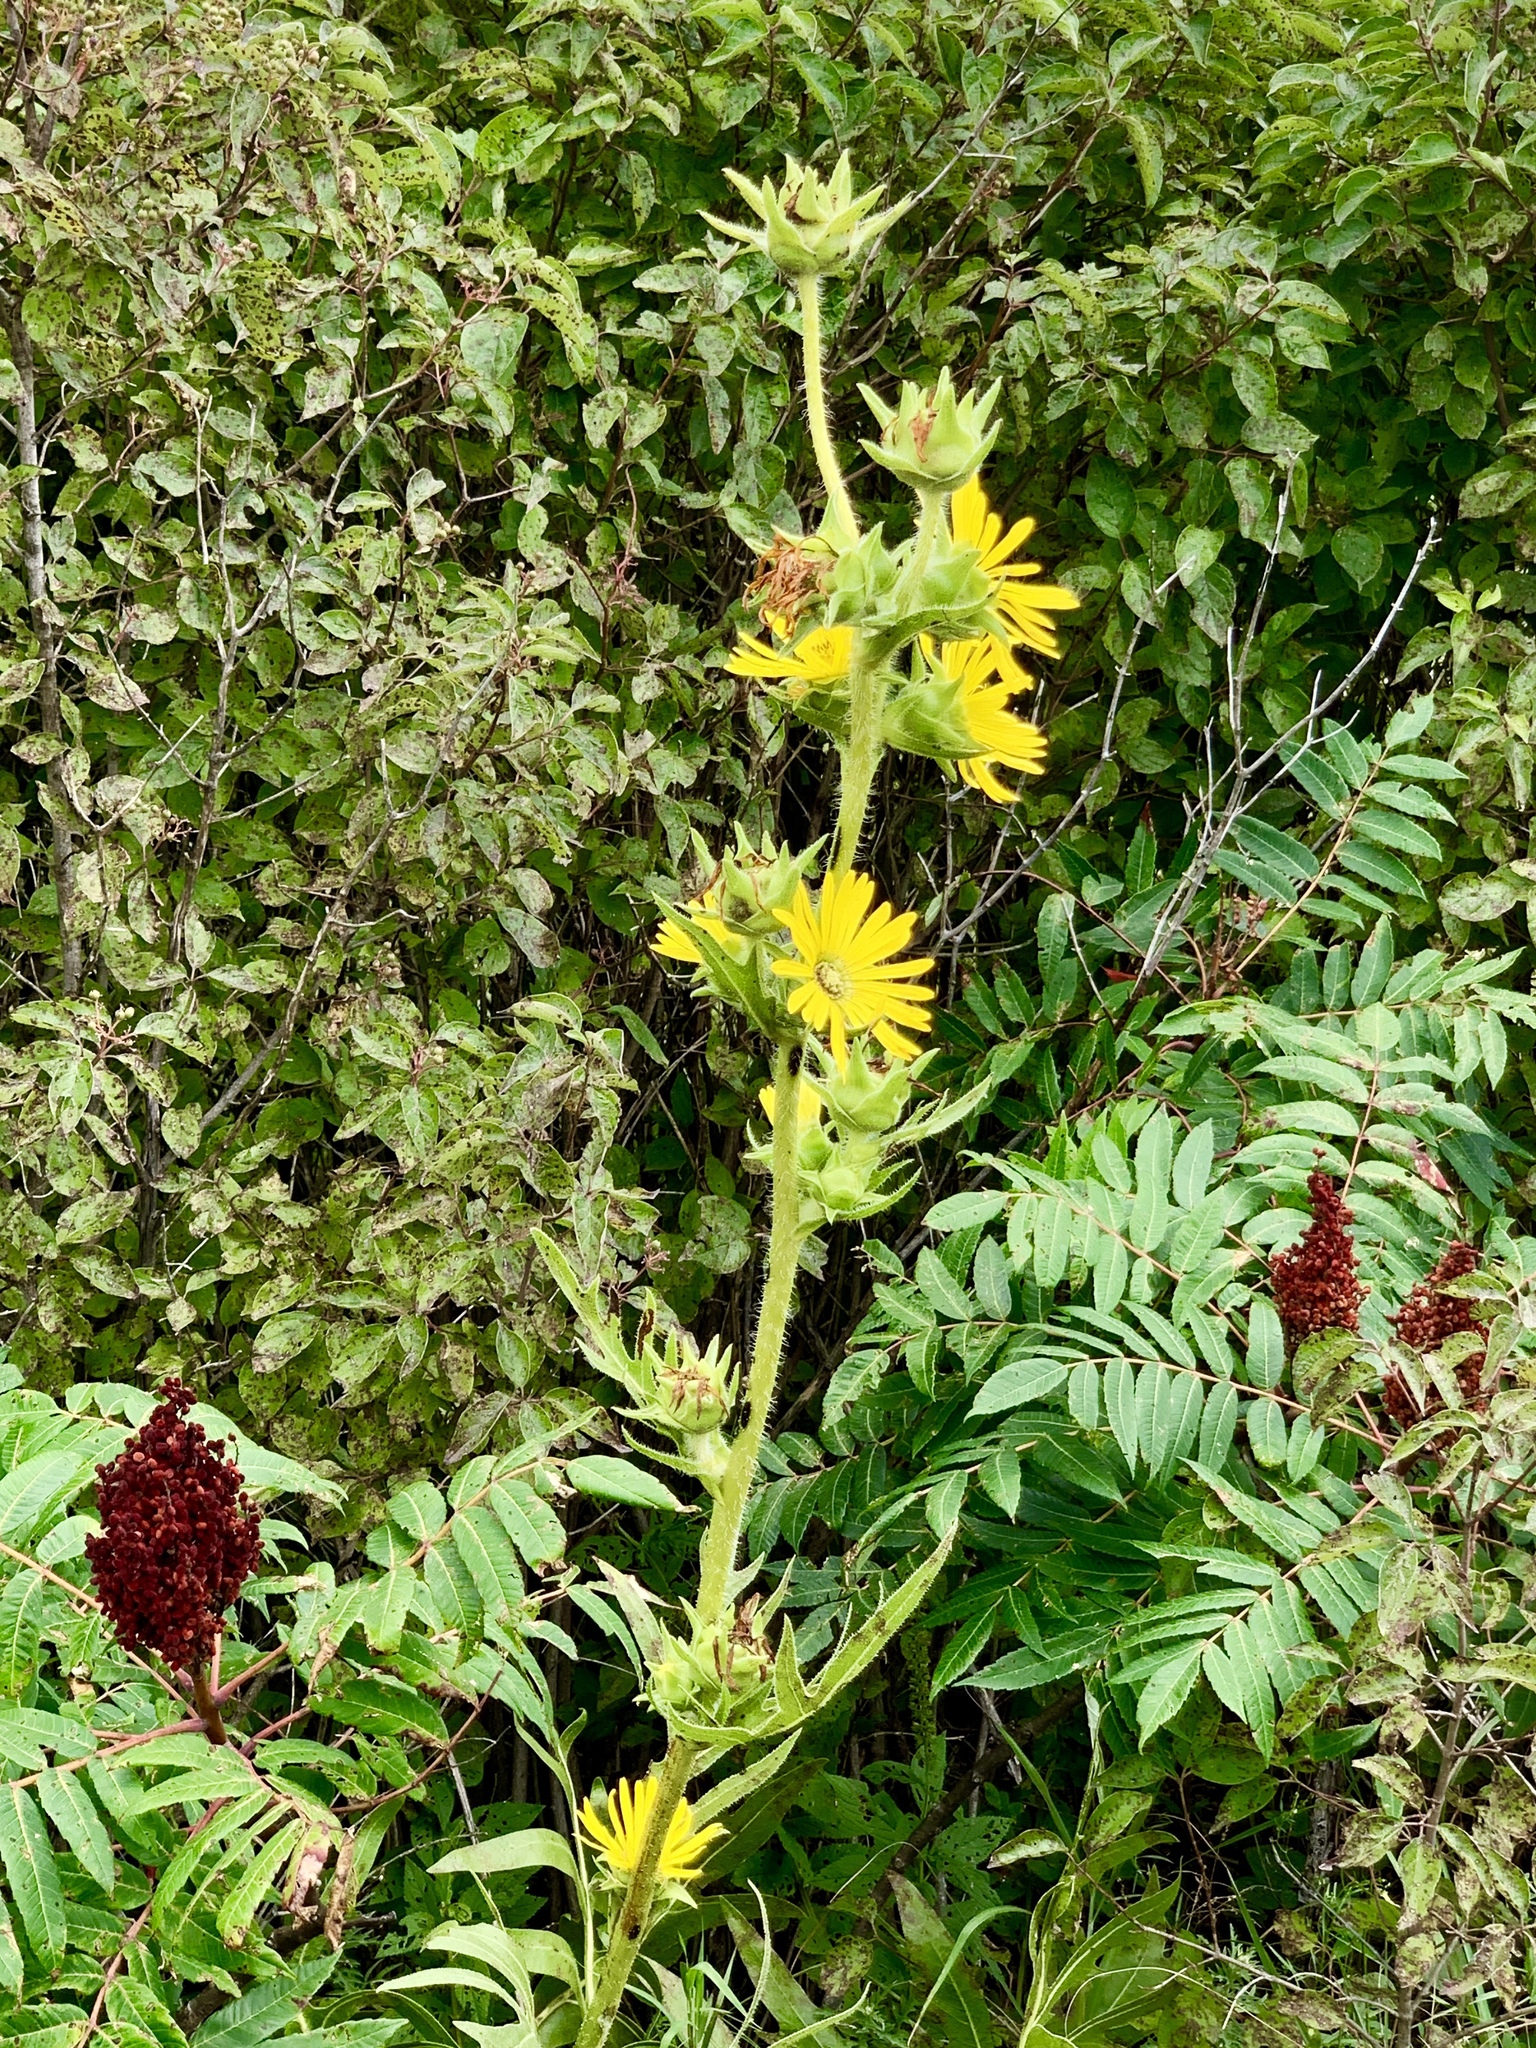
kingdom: Plantae
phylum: Tracheophyta
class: Magnoliopsida
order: Asterales
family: Asteraceae
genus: Silphium
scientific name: Silphium laciniatum
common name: Polarplant
